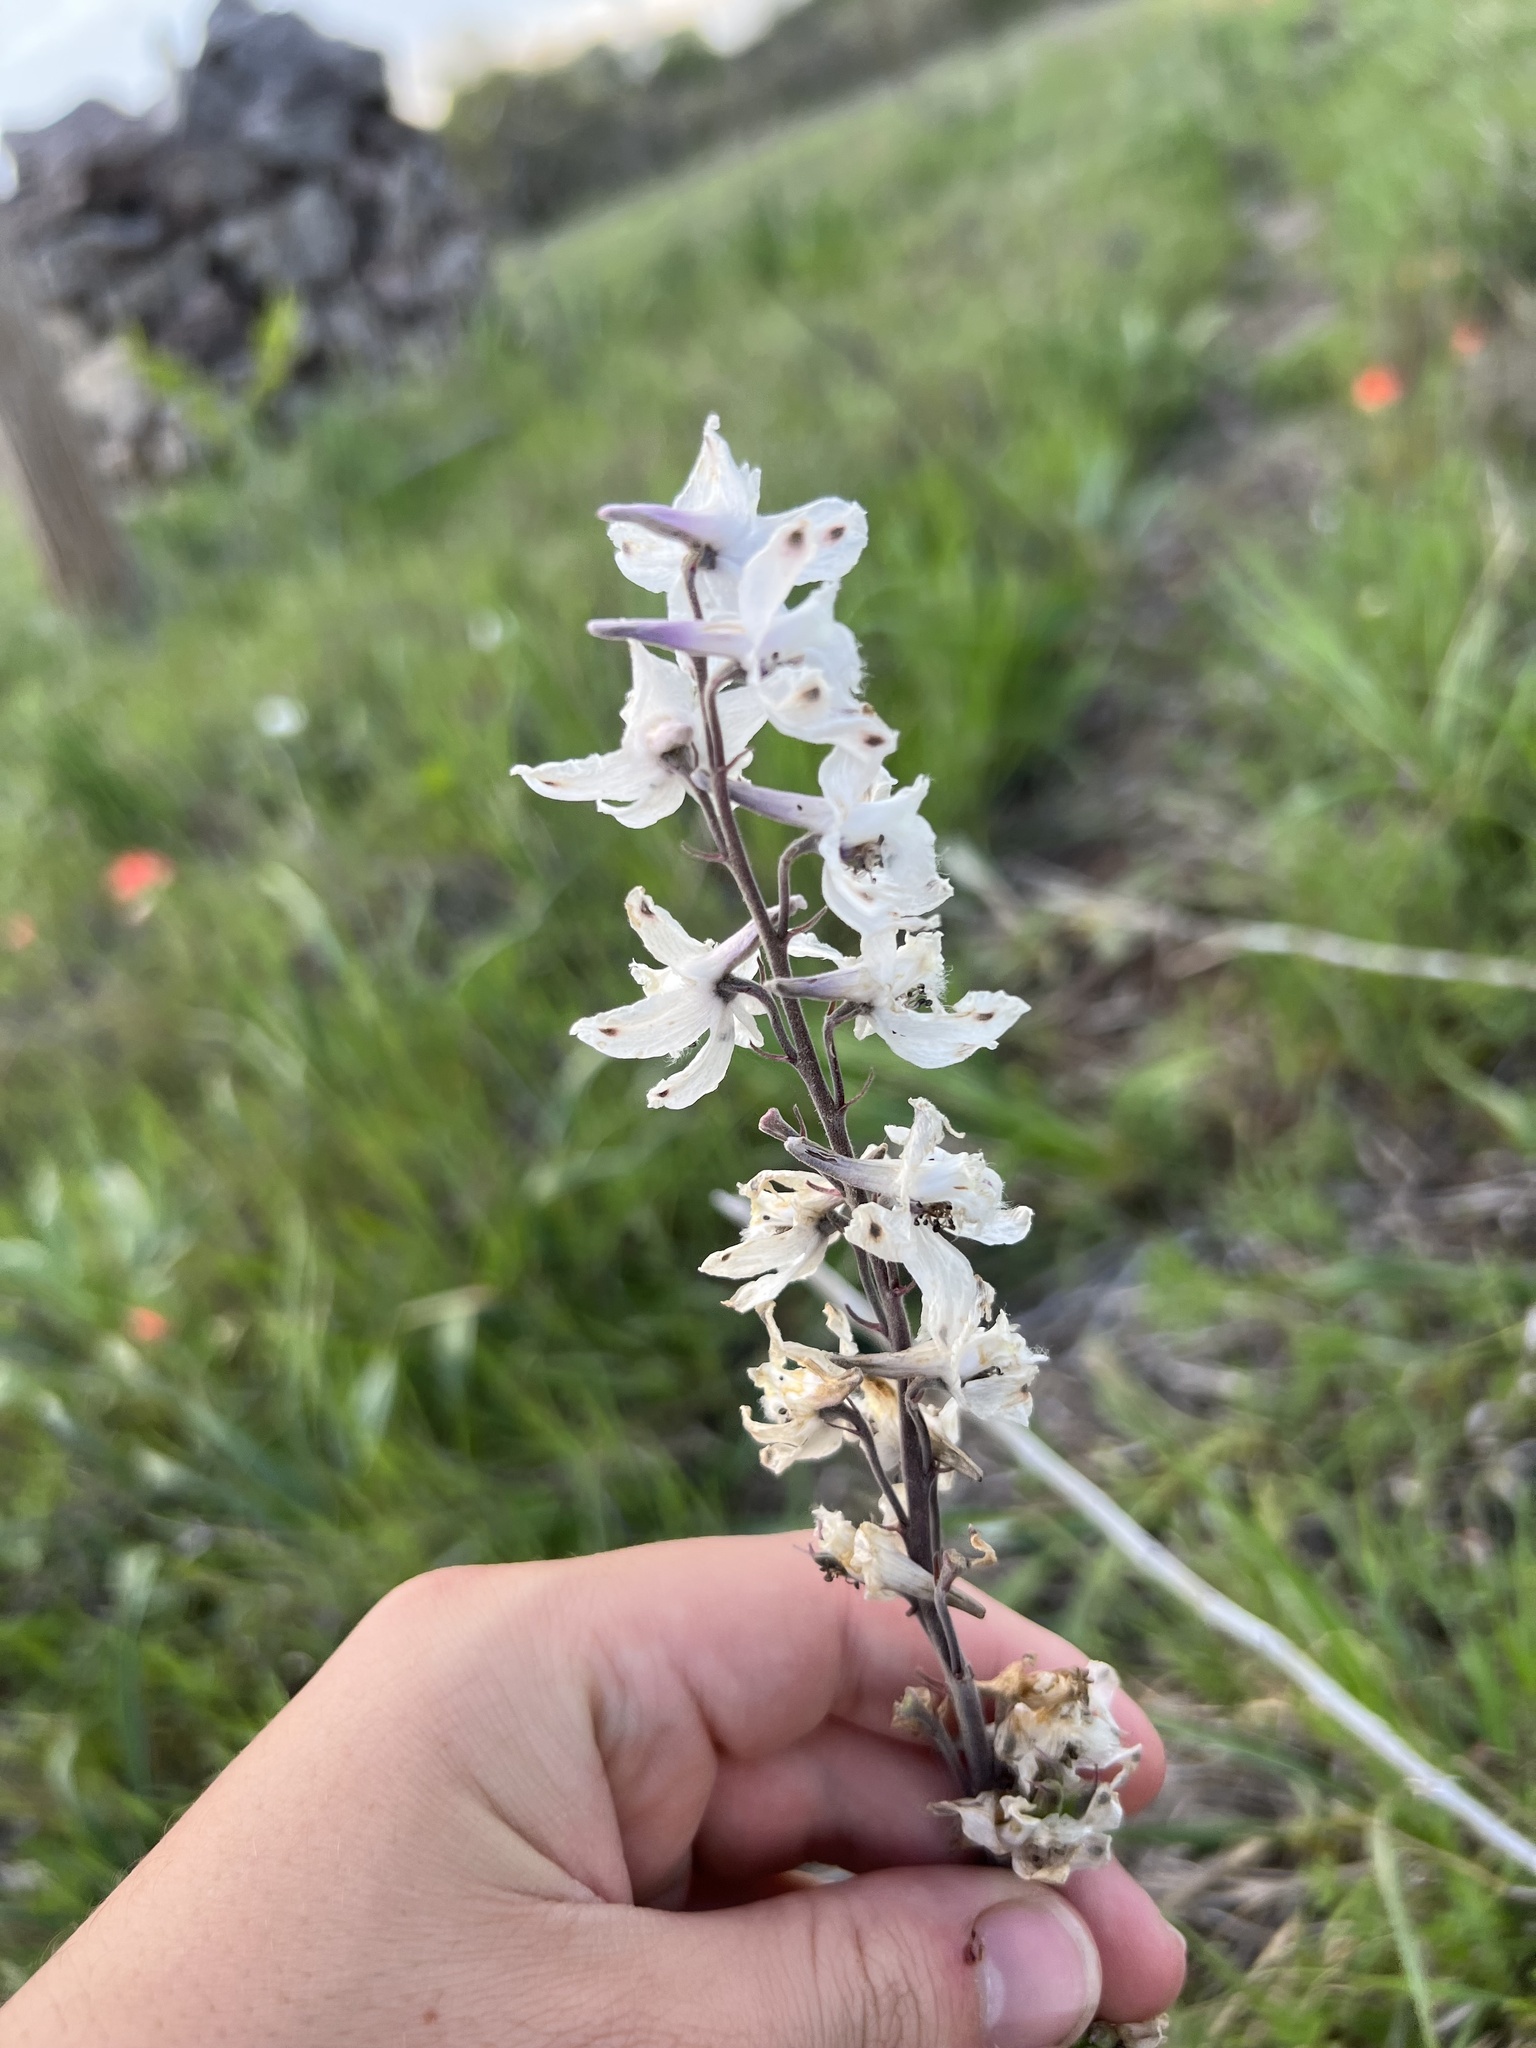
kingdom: Plantae
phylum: Tracheophyta
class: Magnoliopsida
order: Ranunculales
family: Ranunculaceae
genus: Delphinium
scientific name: Delphinium carolinianum
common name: Carolina larkspur
